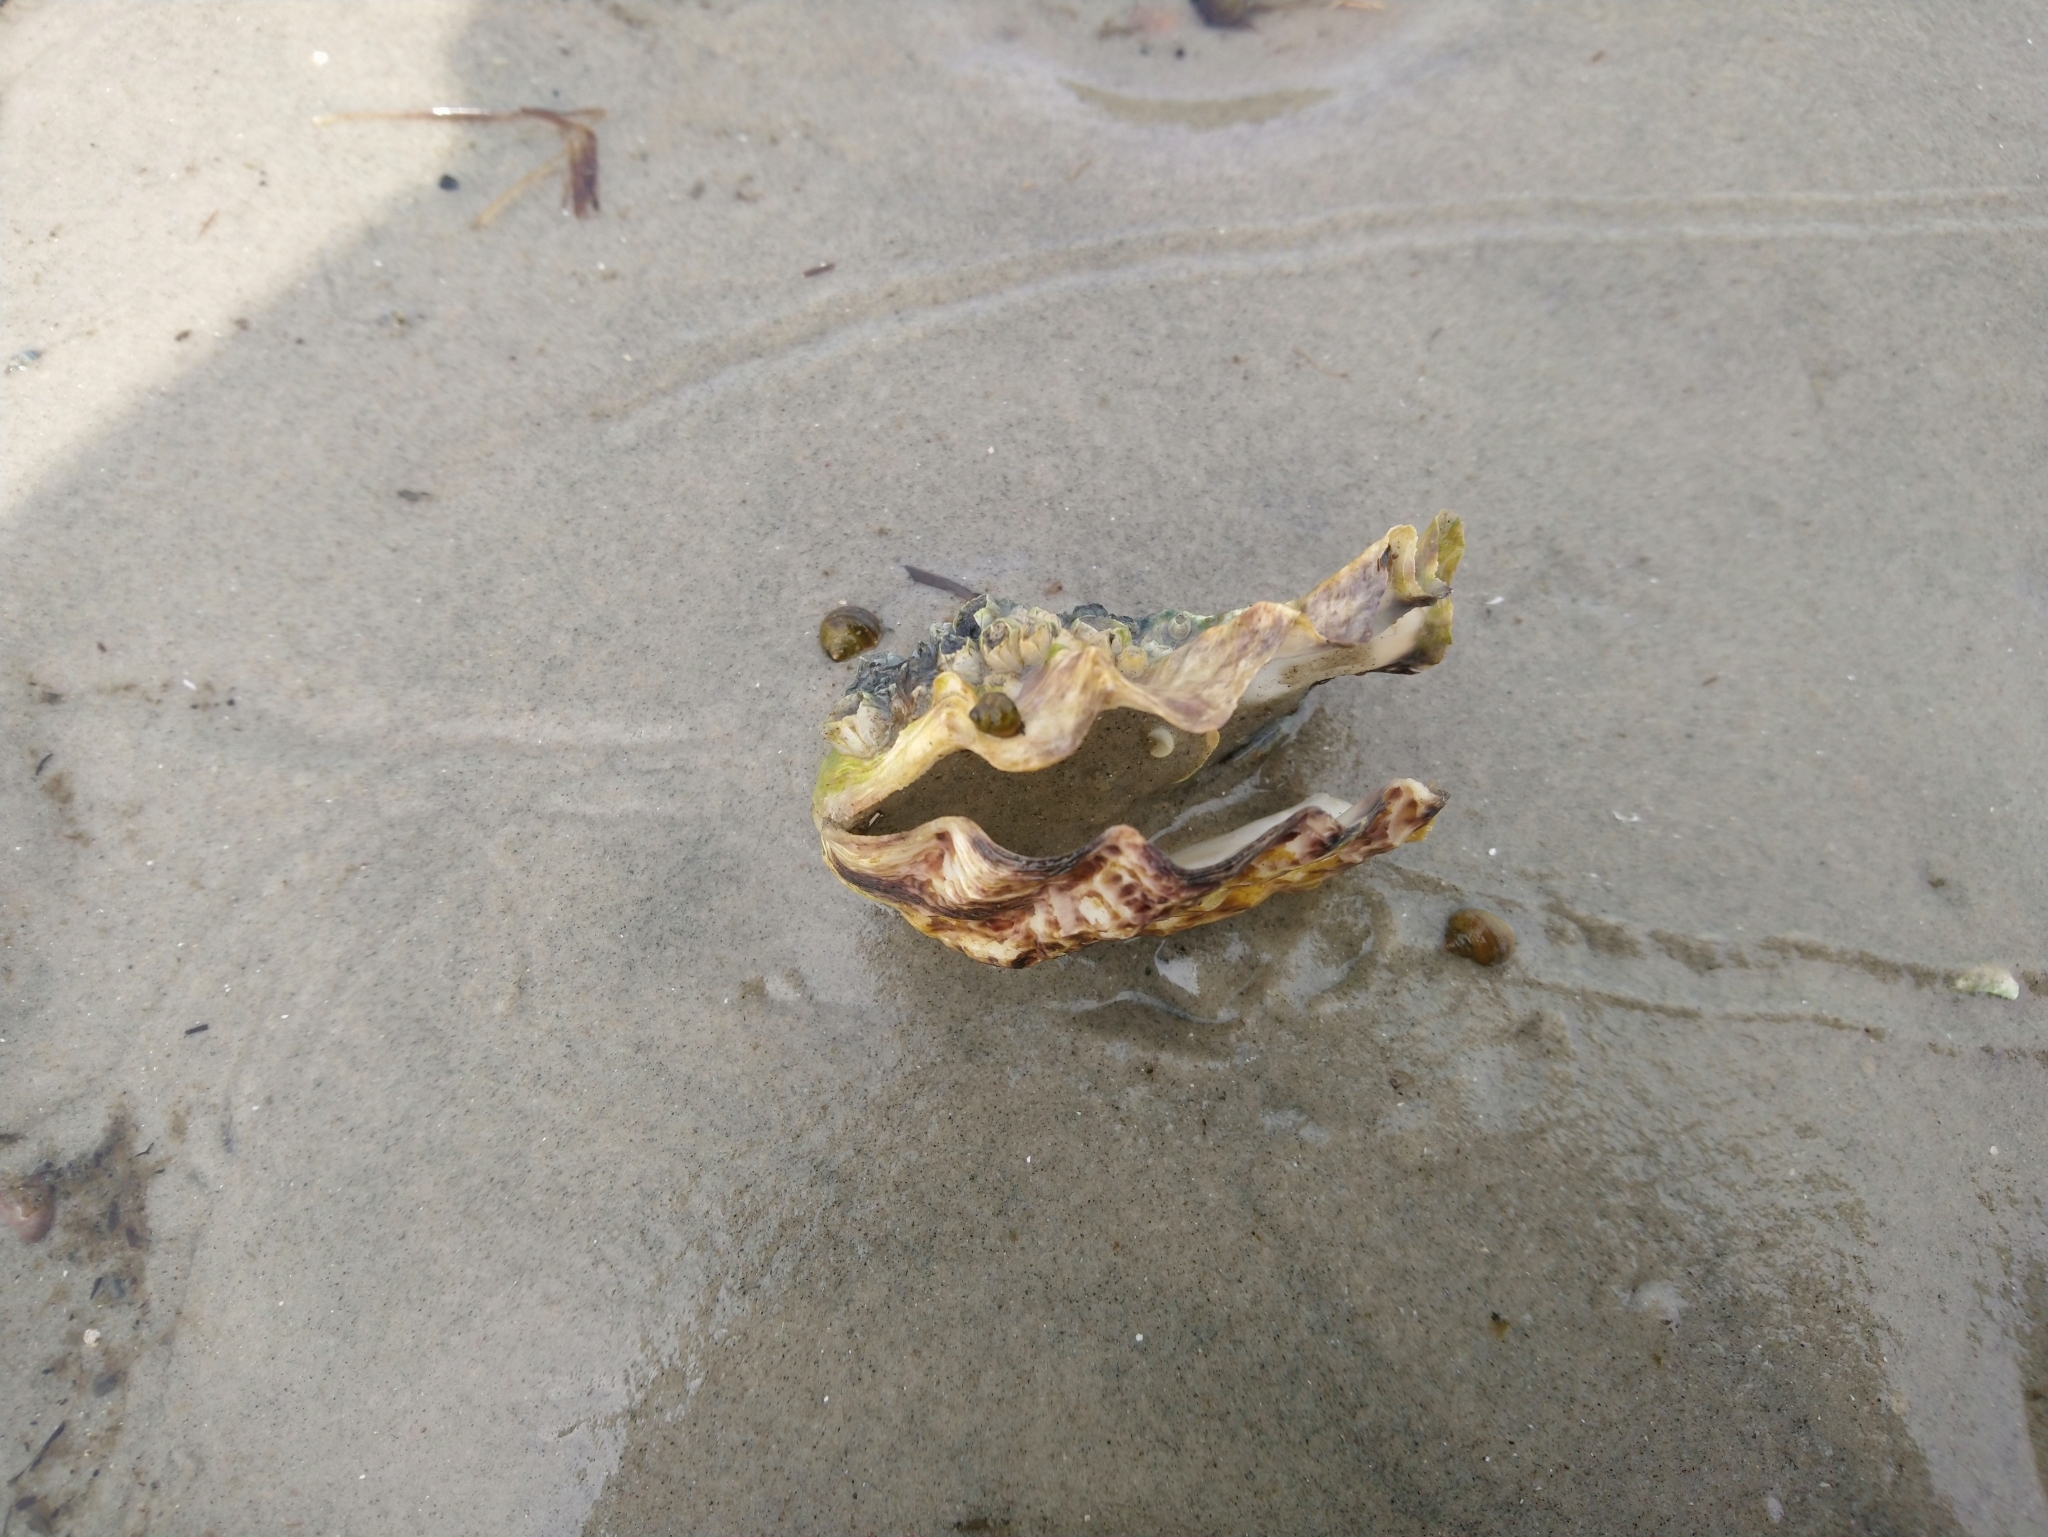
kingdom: Animalia
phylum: Mollusca
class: Bivalvia
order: Ostreida
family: Ostreidae
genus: Magallana
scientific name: Magallana gigas
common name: Pacific oyster
